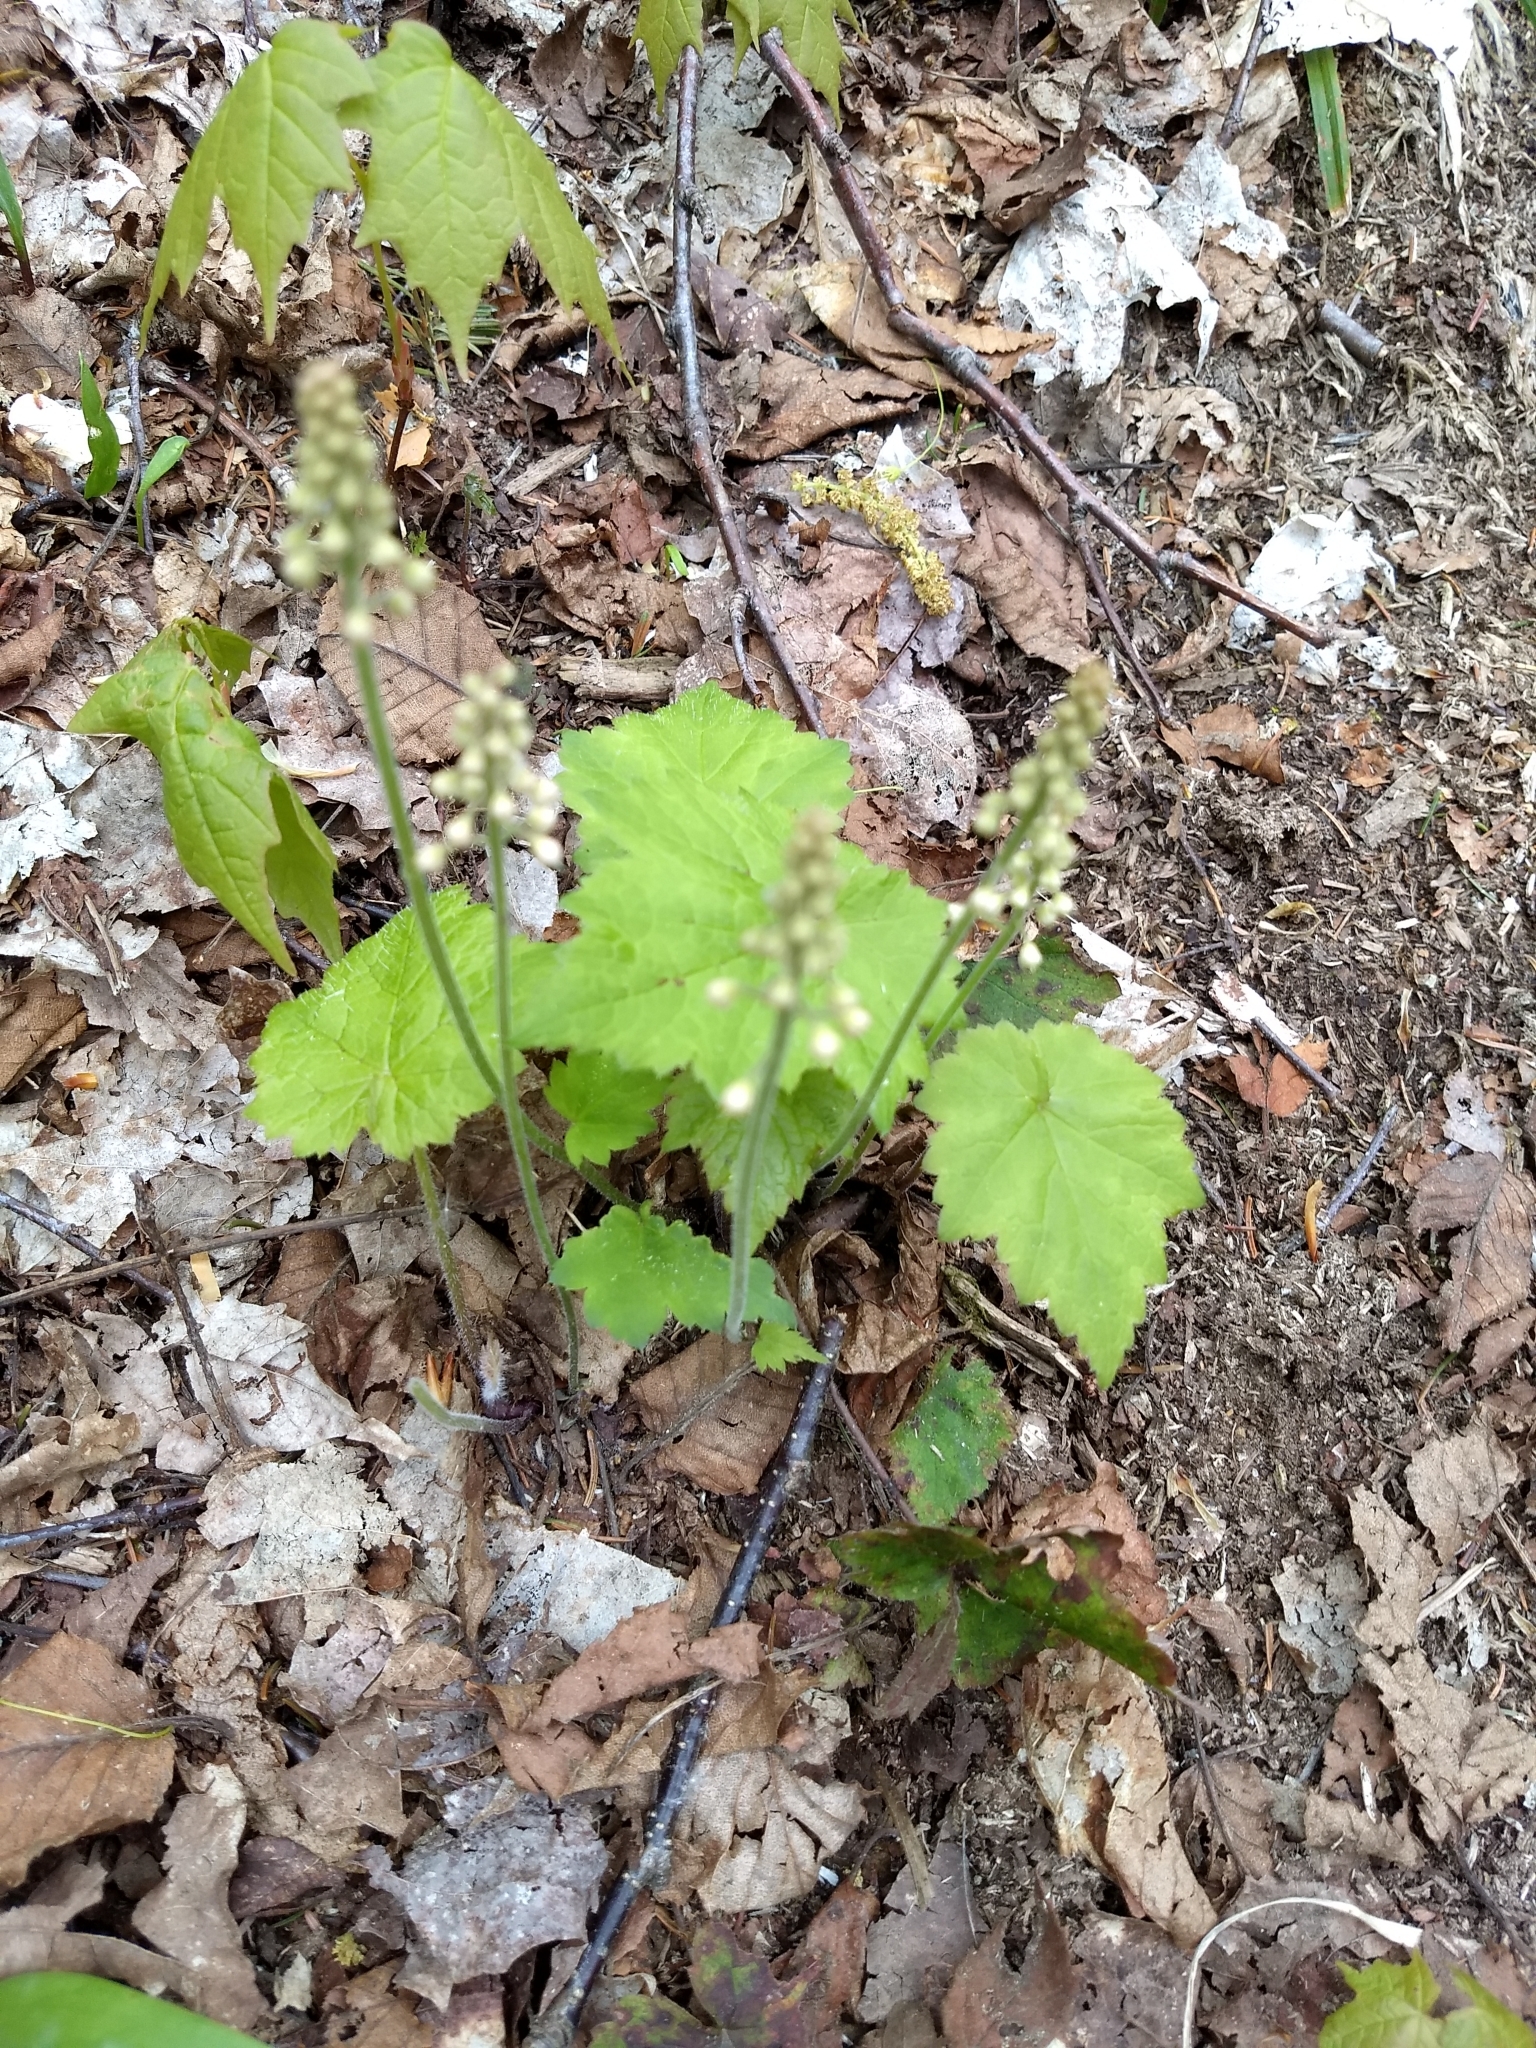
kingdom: Plantae
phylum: Tracheophyta
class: Magnoliopsida
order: Saxifragales
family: Saxifragaceae
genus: Tiarella
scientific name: Tiarella stolonifera
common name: Stoloniferous foamflower
